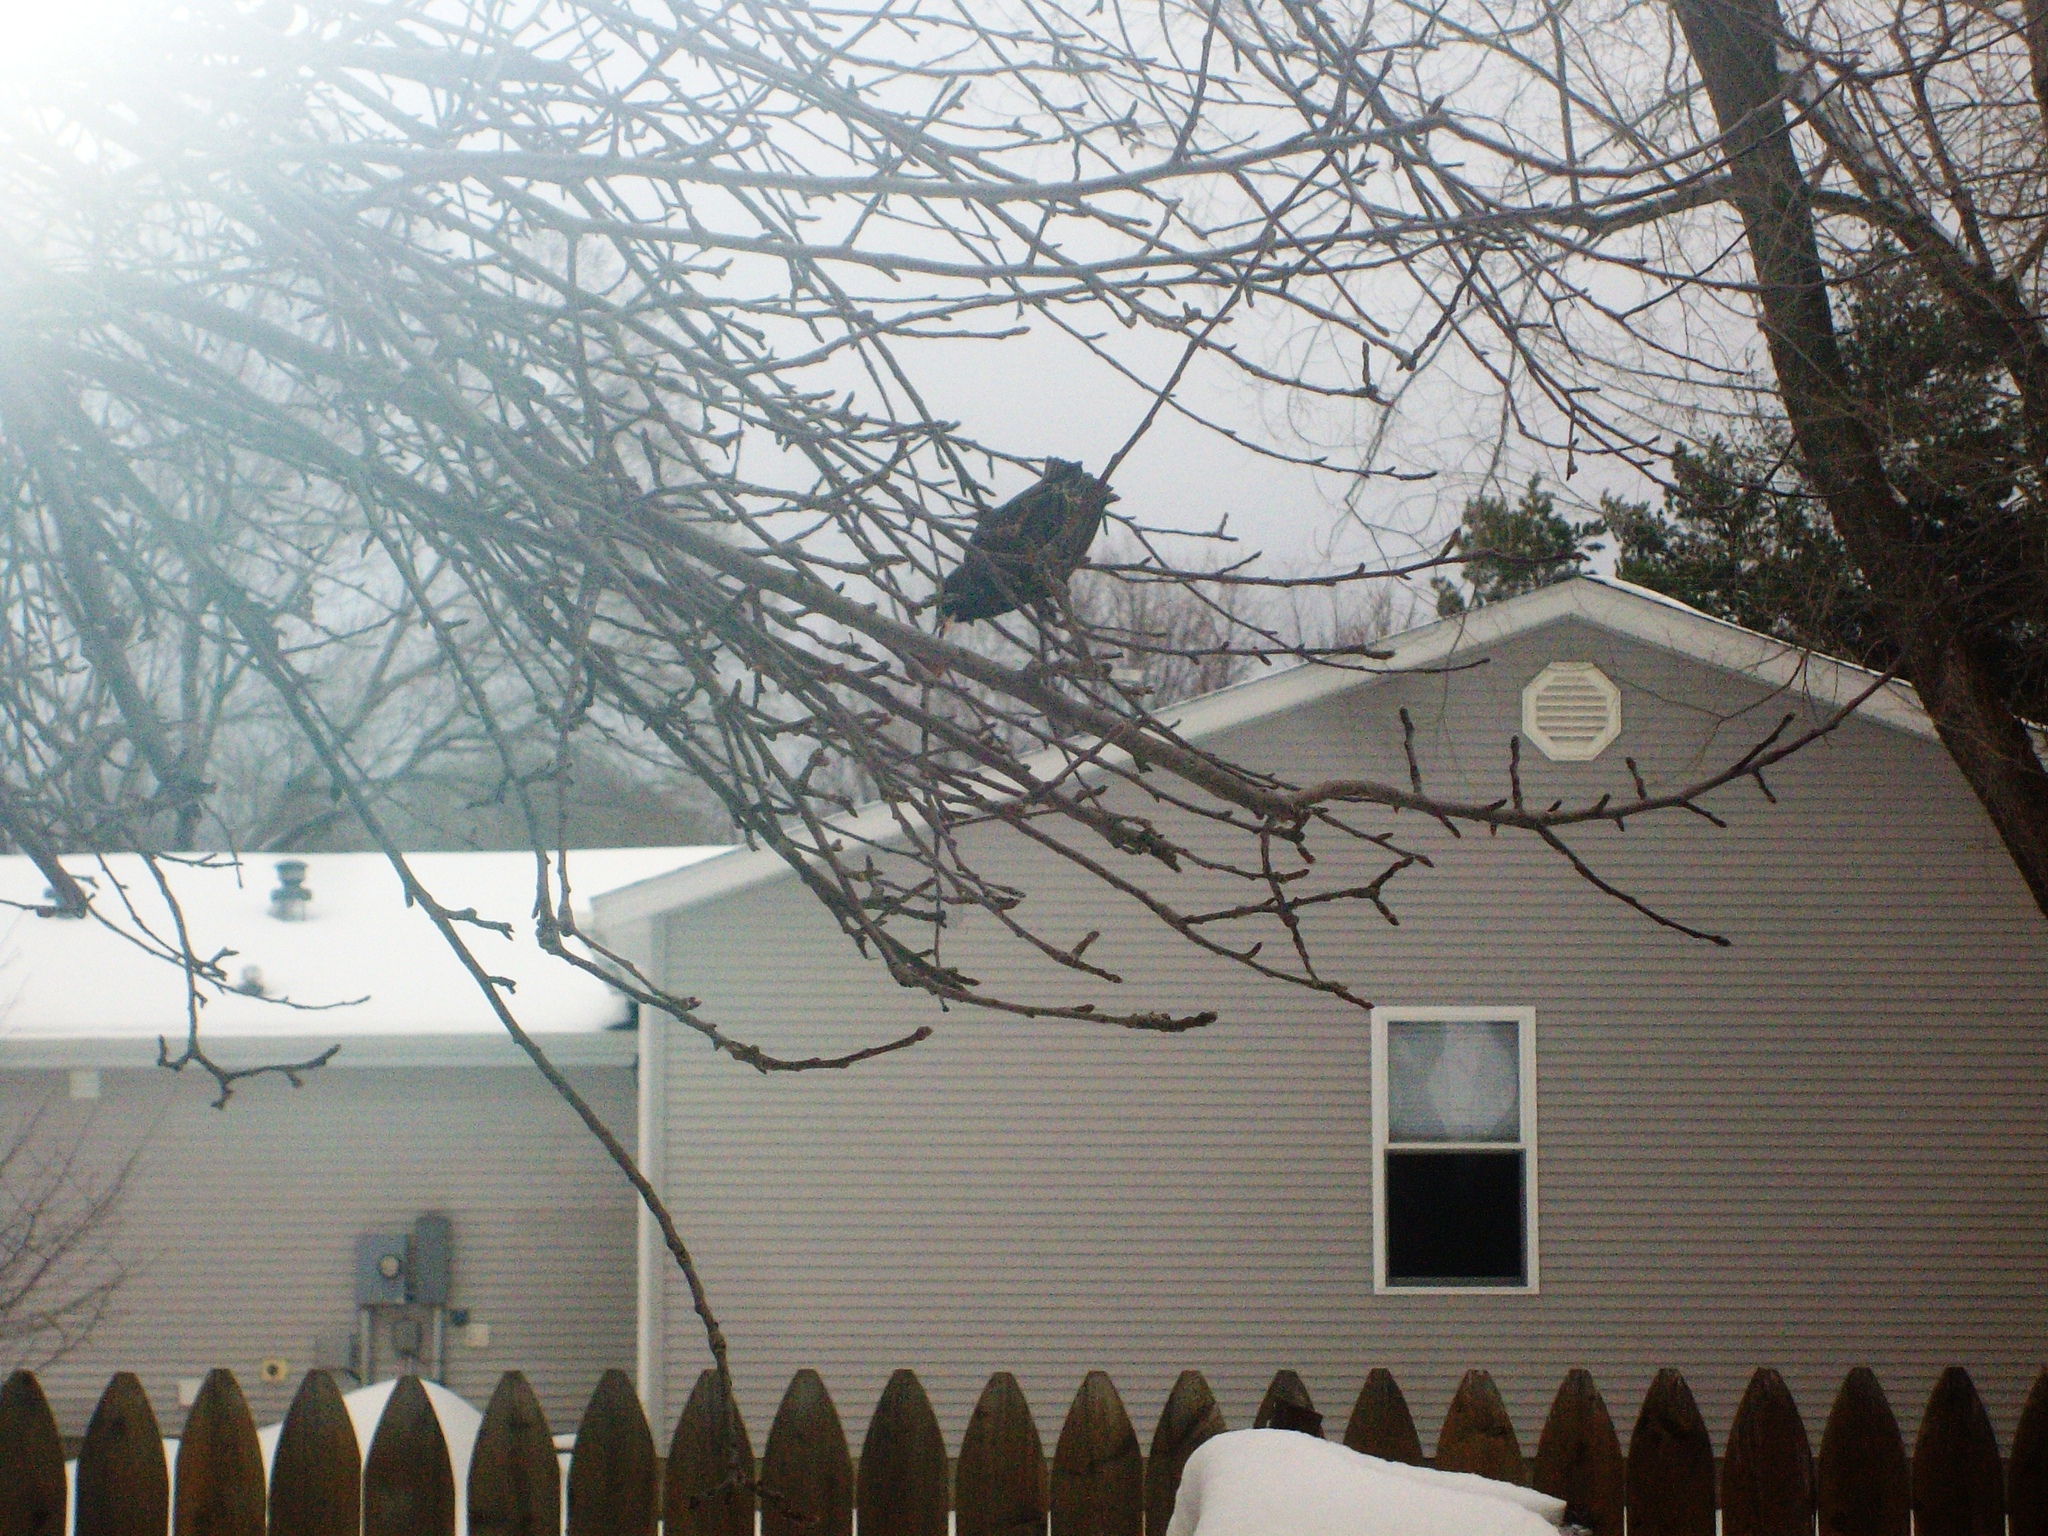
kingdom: Animalia
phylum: Chordata
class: Aves
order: Passeriformes
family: Sturnidae
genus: Sturnus
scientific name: Sturnus vulgaris
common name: Common starling
